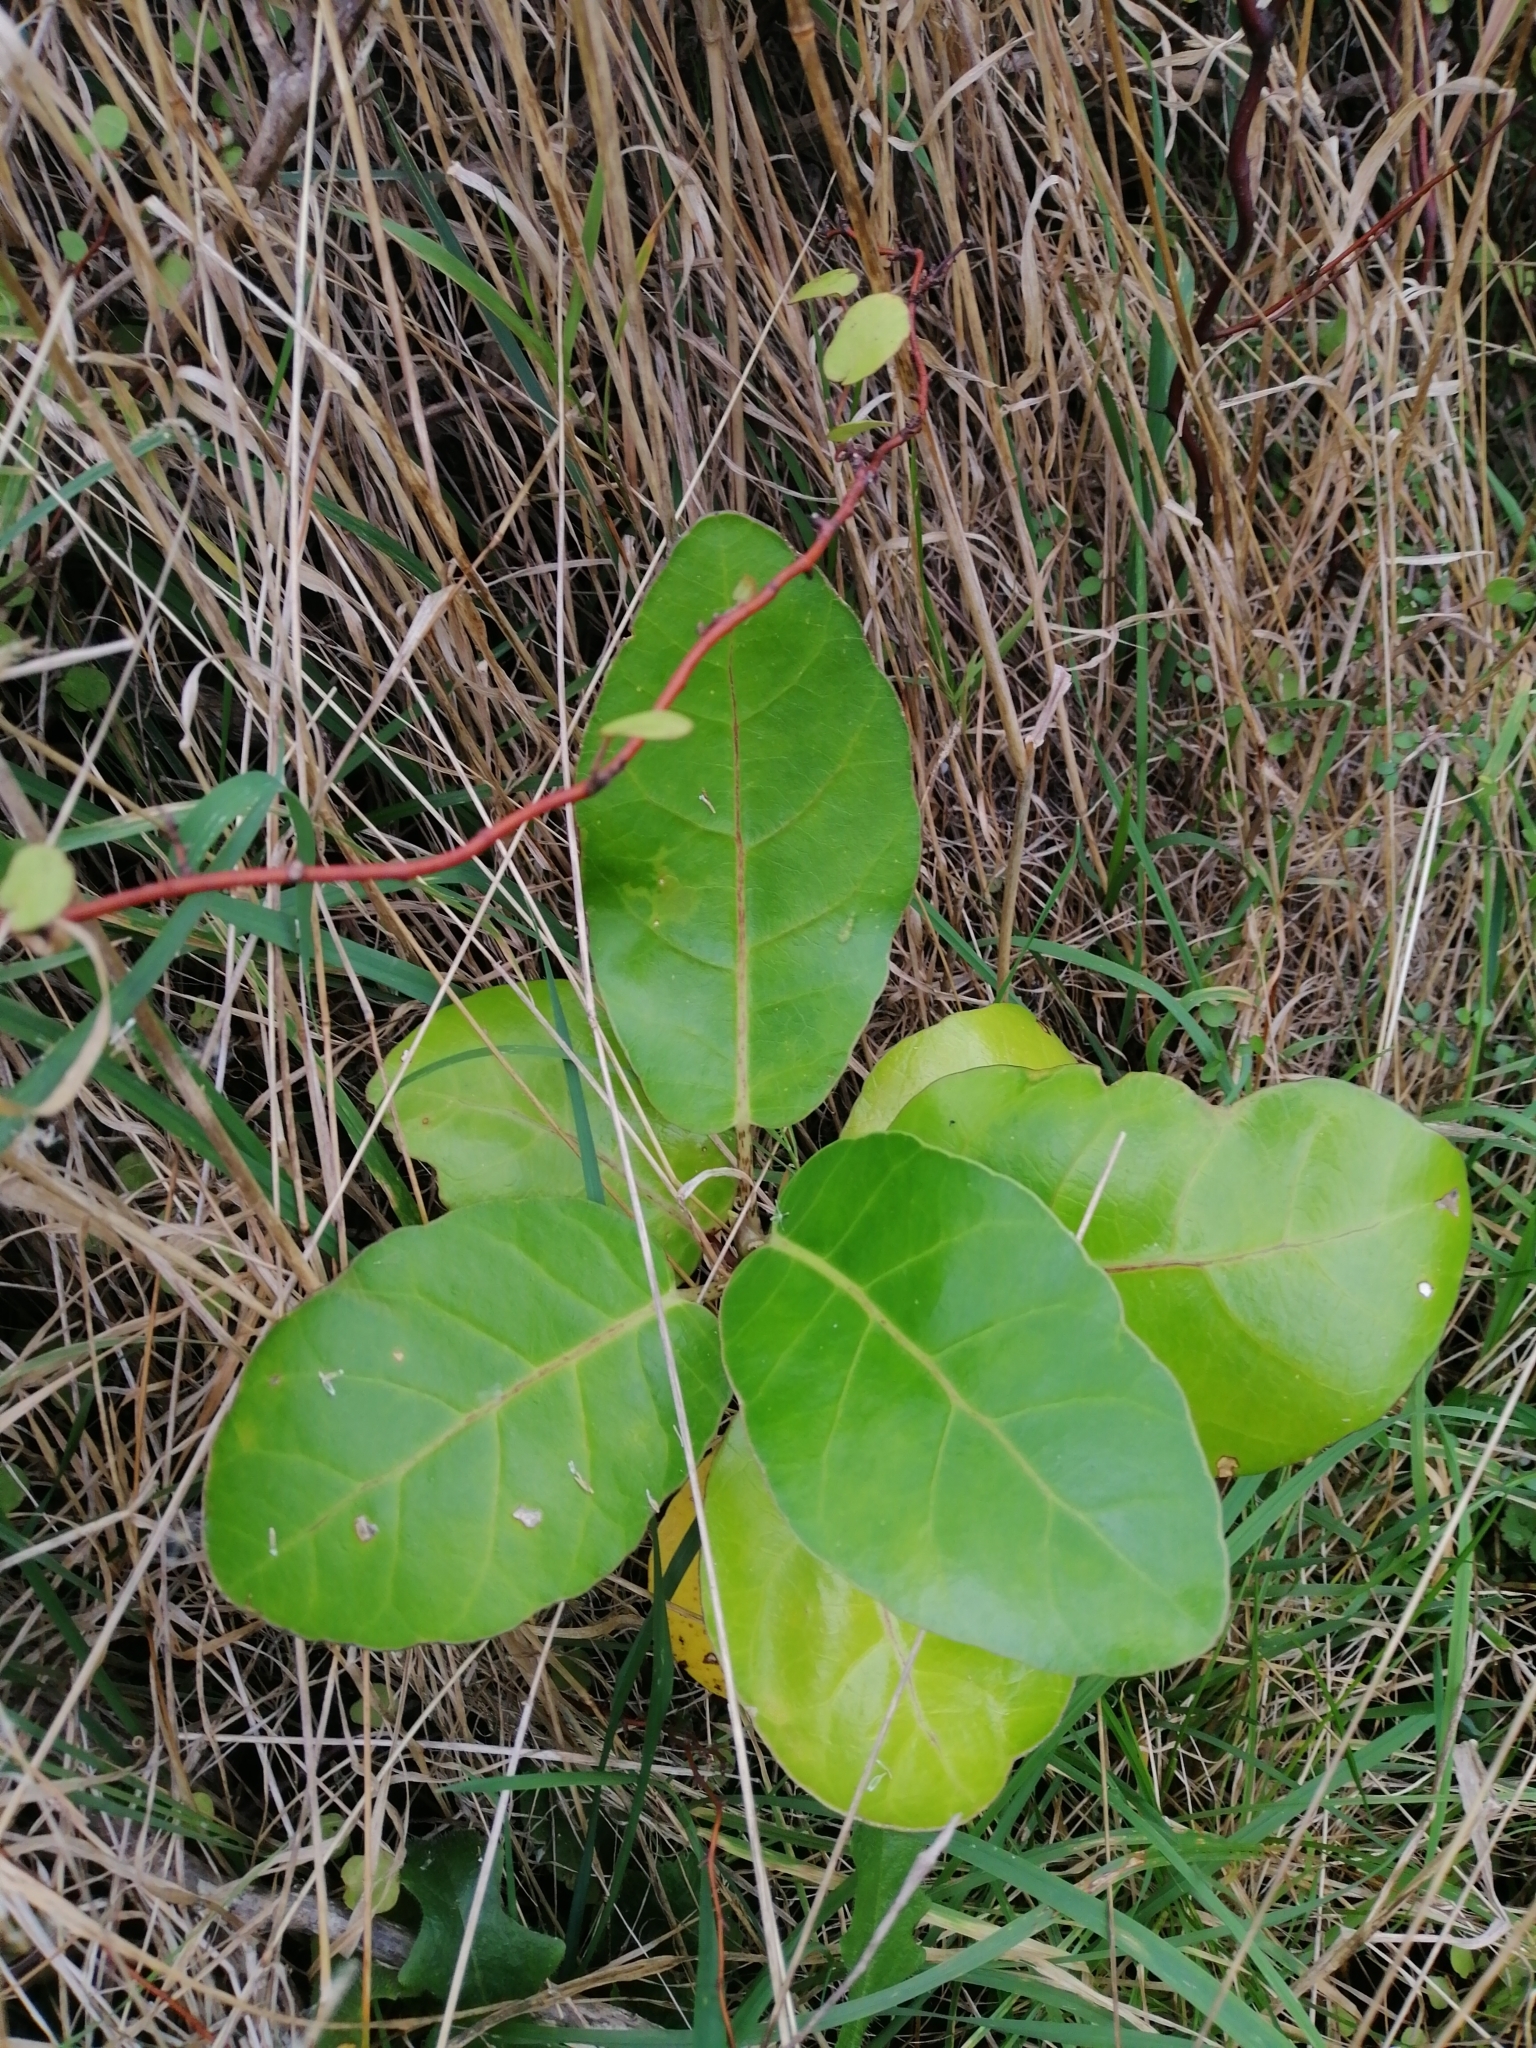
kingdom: Plantae
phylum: Tracheophyta
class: Magnoliopsida
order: Apiales
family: Araliaceae
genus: Meryta
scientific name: Meryta sinclairii
